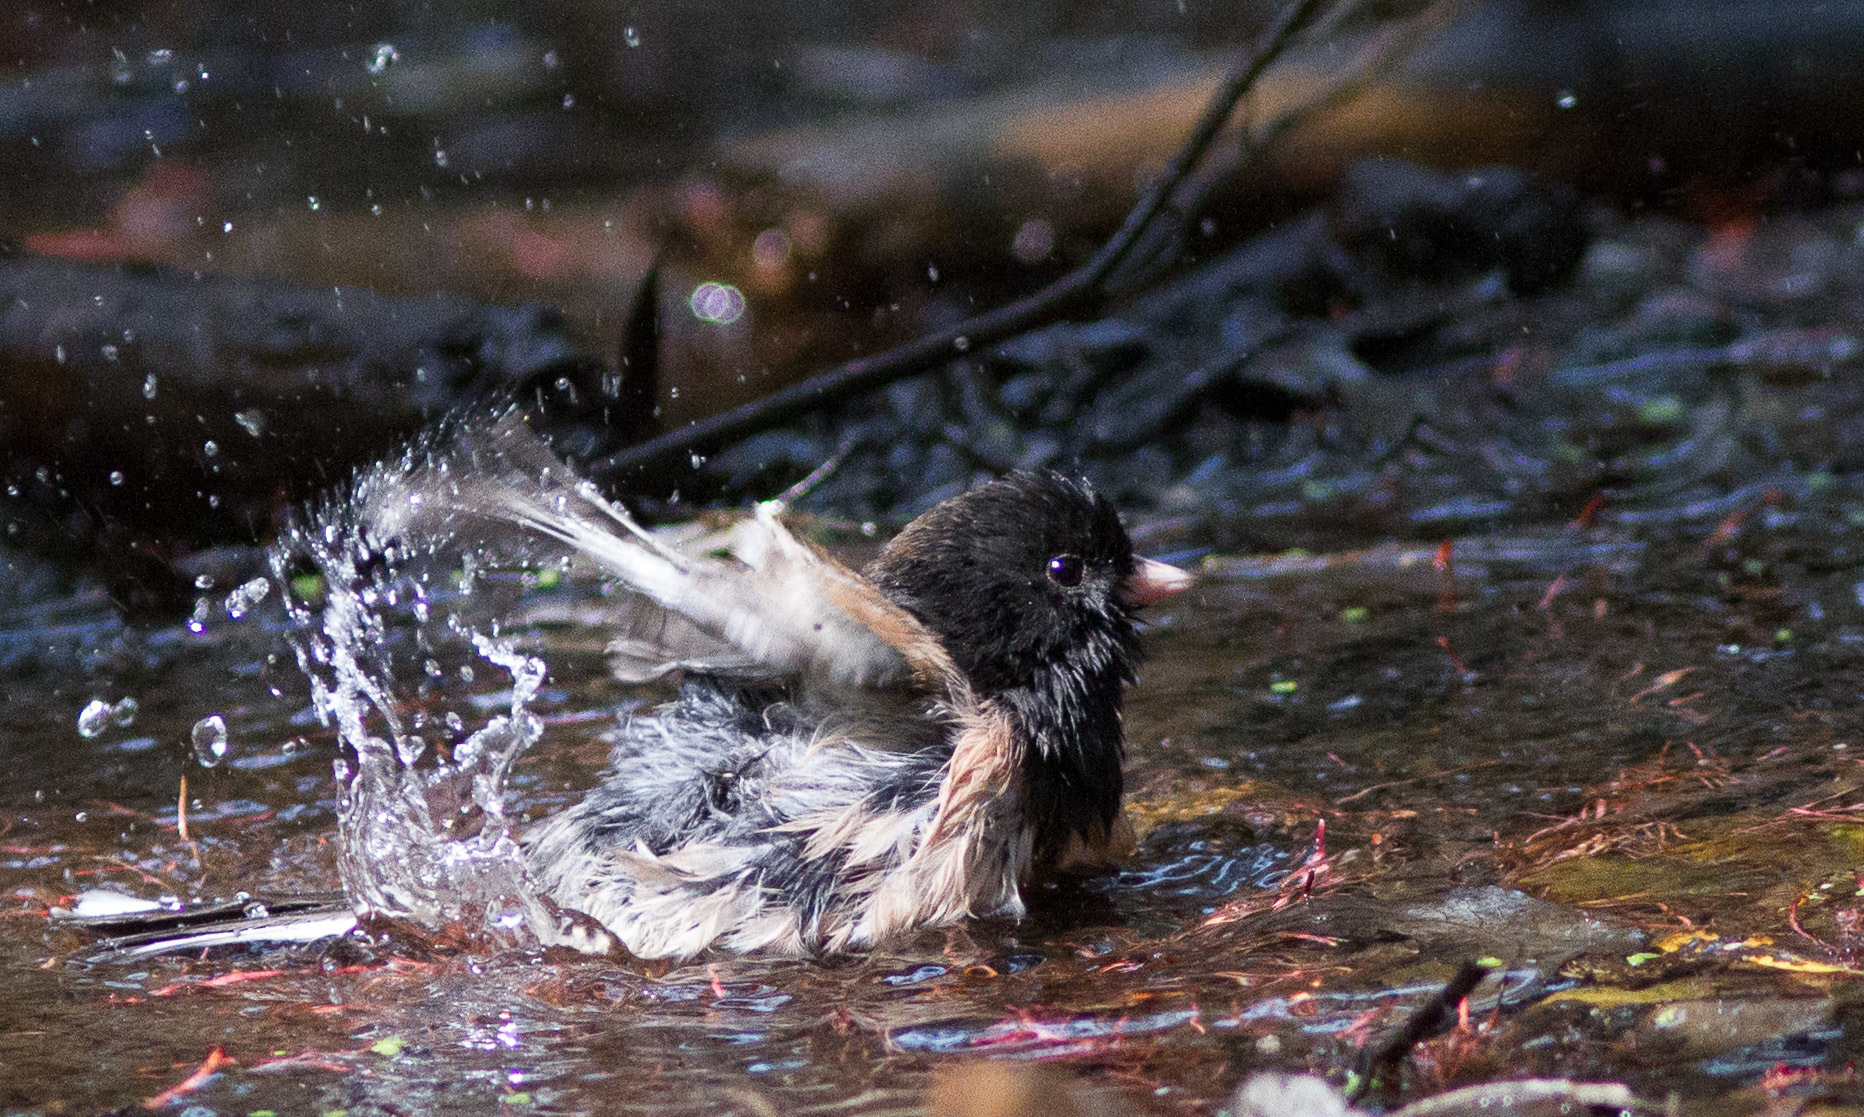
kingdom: Animalia
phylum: Chordata
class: Aves
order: Passeriformes
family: Passerellidae
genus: Junco
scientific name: Junco hyemalis
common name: Dark-eyed junco
